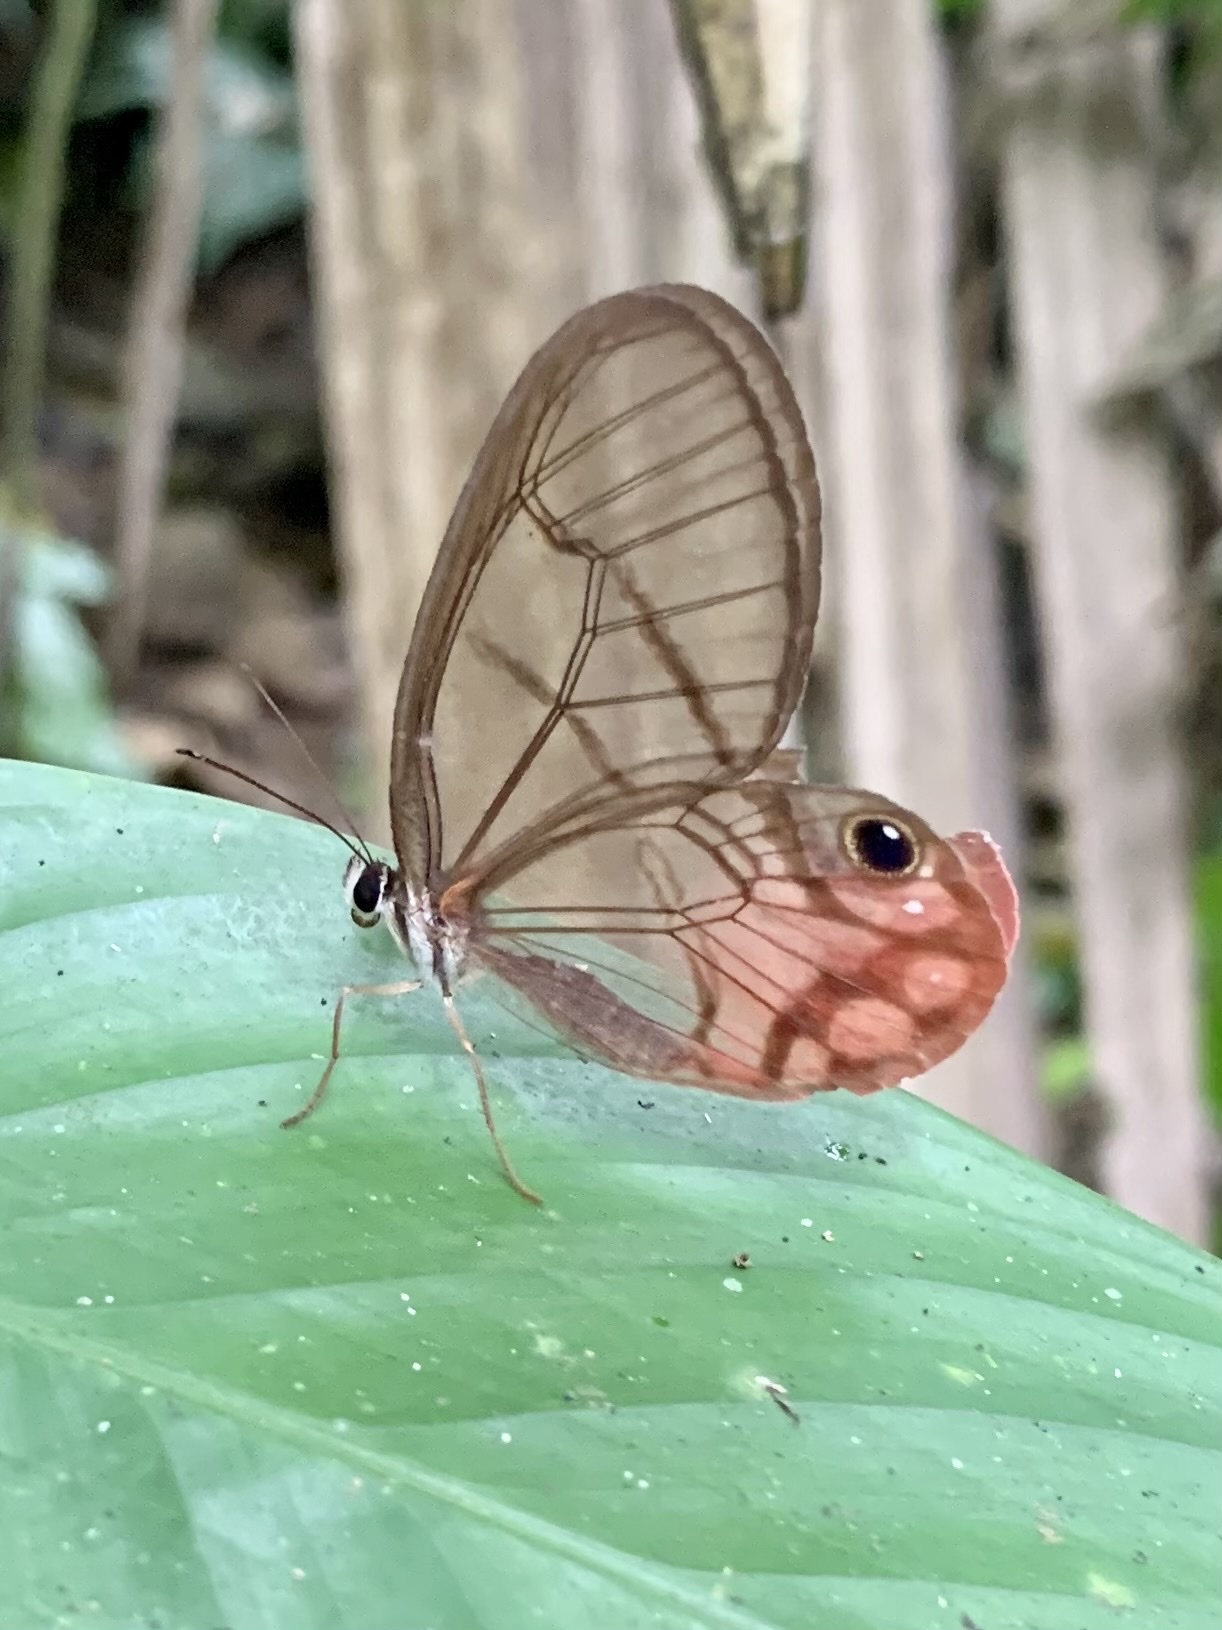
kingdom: Animalia
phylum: Arthropoda
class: Insecta
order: Lepidoptera
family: Nymphalidae
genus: Cithaerias
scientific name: Cithaerias pireta
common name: Rusted clearwing-satyr
